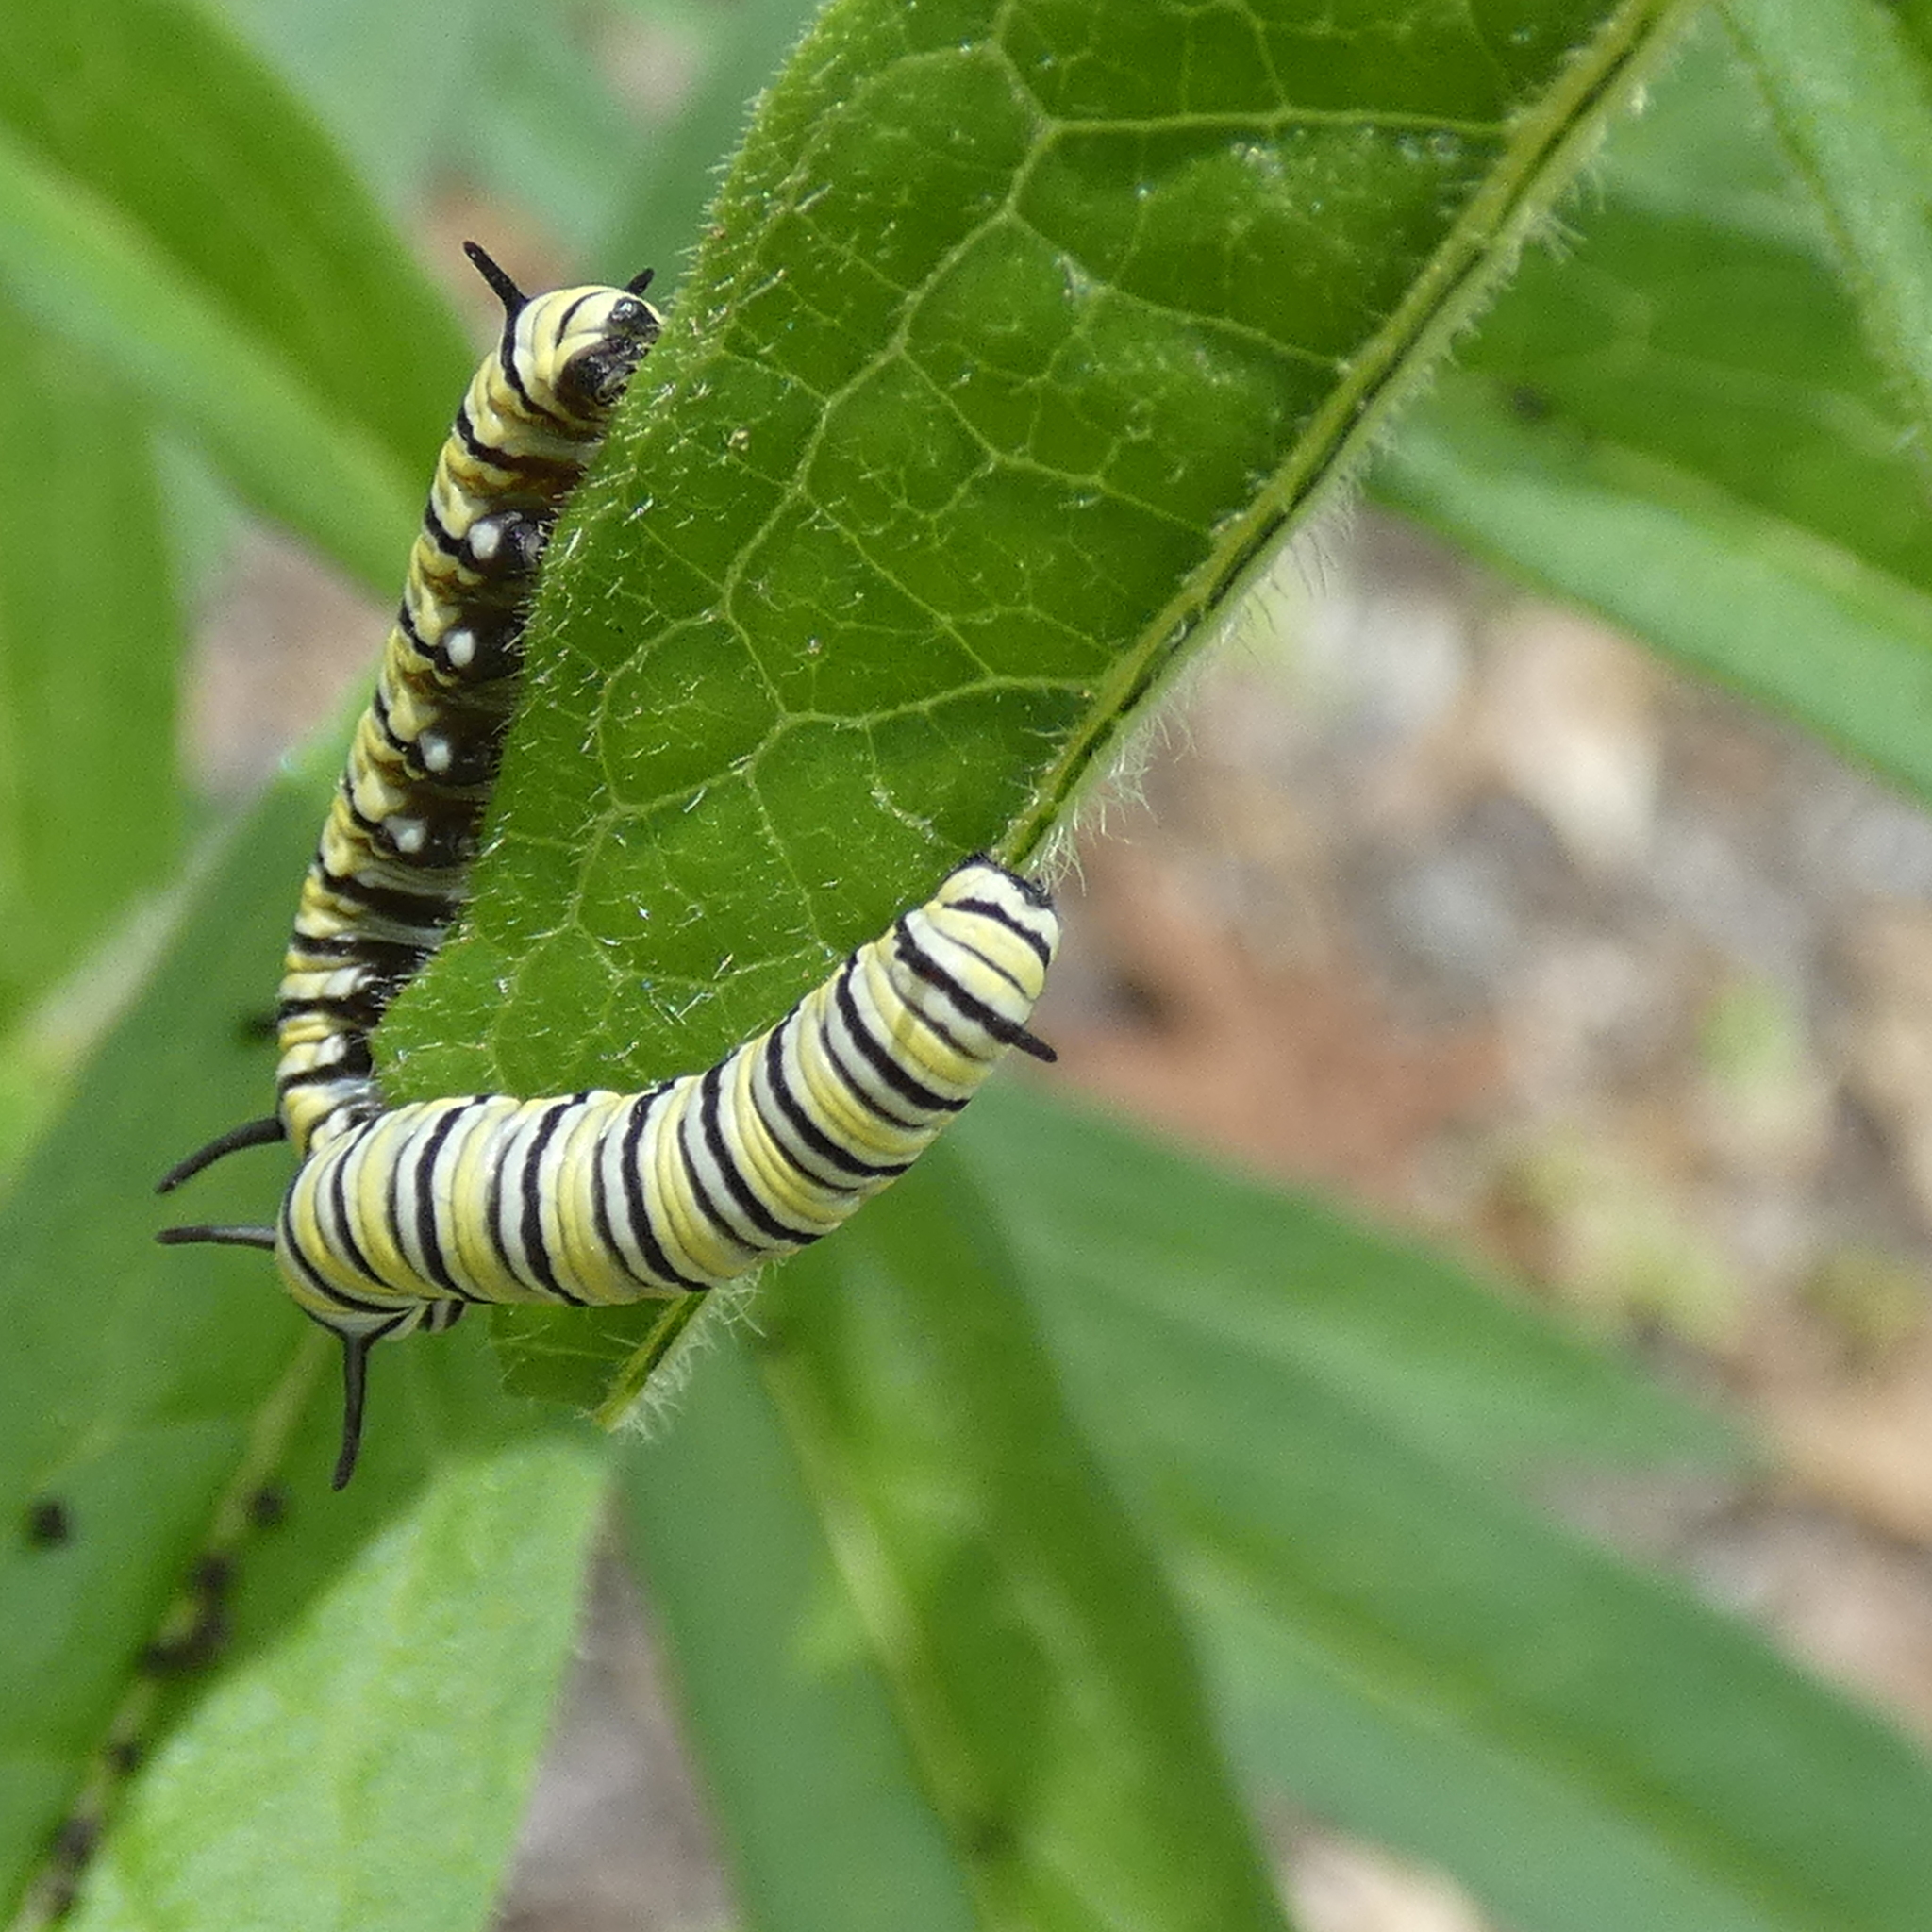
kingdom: Animalia
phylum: Arthropoda
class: Insecta
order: Lepidoptera
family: Nymphalidae
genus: Danaus
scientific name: Danaus plexippus
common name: Monarch
